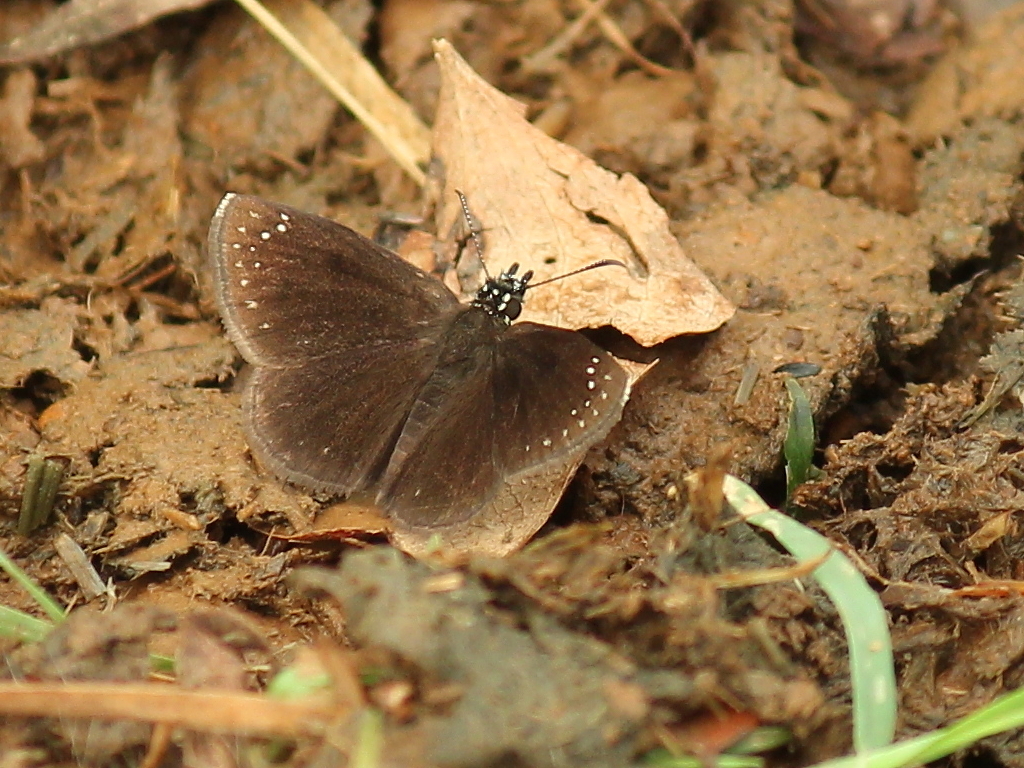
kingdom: Animalia
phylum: Arthropoda
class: Insecta
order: Lepidoptera
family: Hesperiidae
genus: Pholisora
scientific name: Pholisora catullus
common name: Common sootywing
